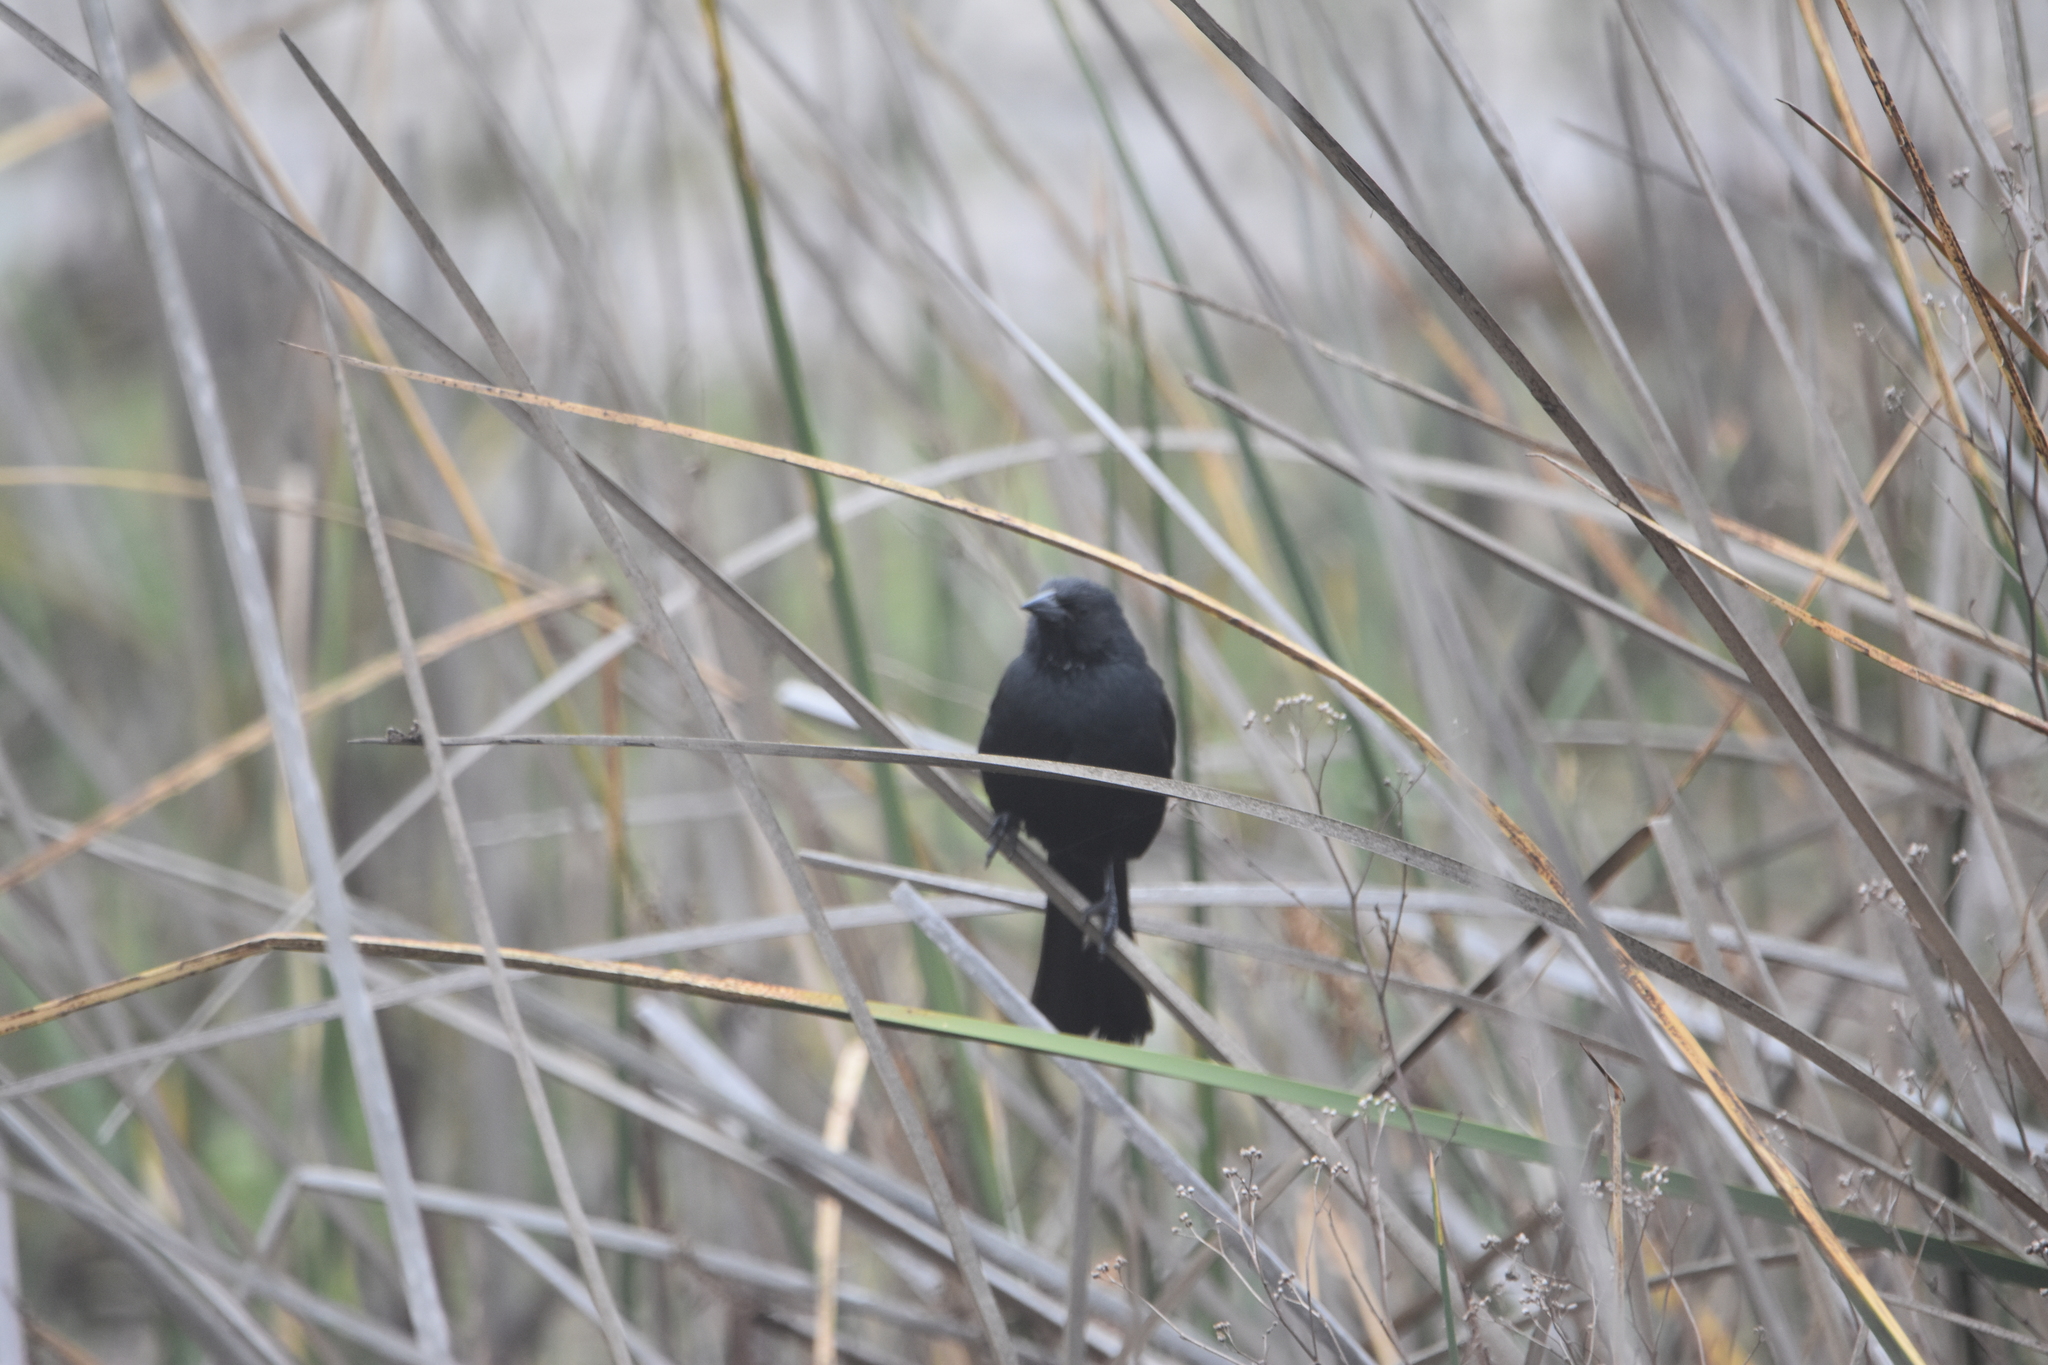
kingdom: Animalia
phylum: Chordata
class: Aves
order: Passeriformes
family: Icteridae
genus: Agelasticus
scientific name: Agelasticus thilius
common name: Yellow-winged blackbird
